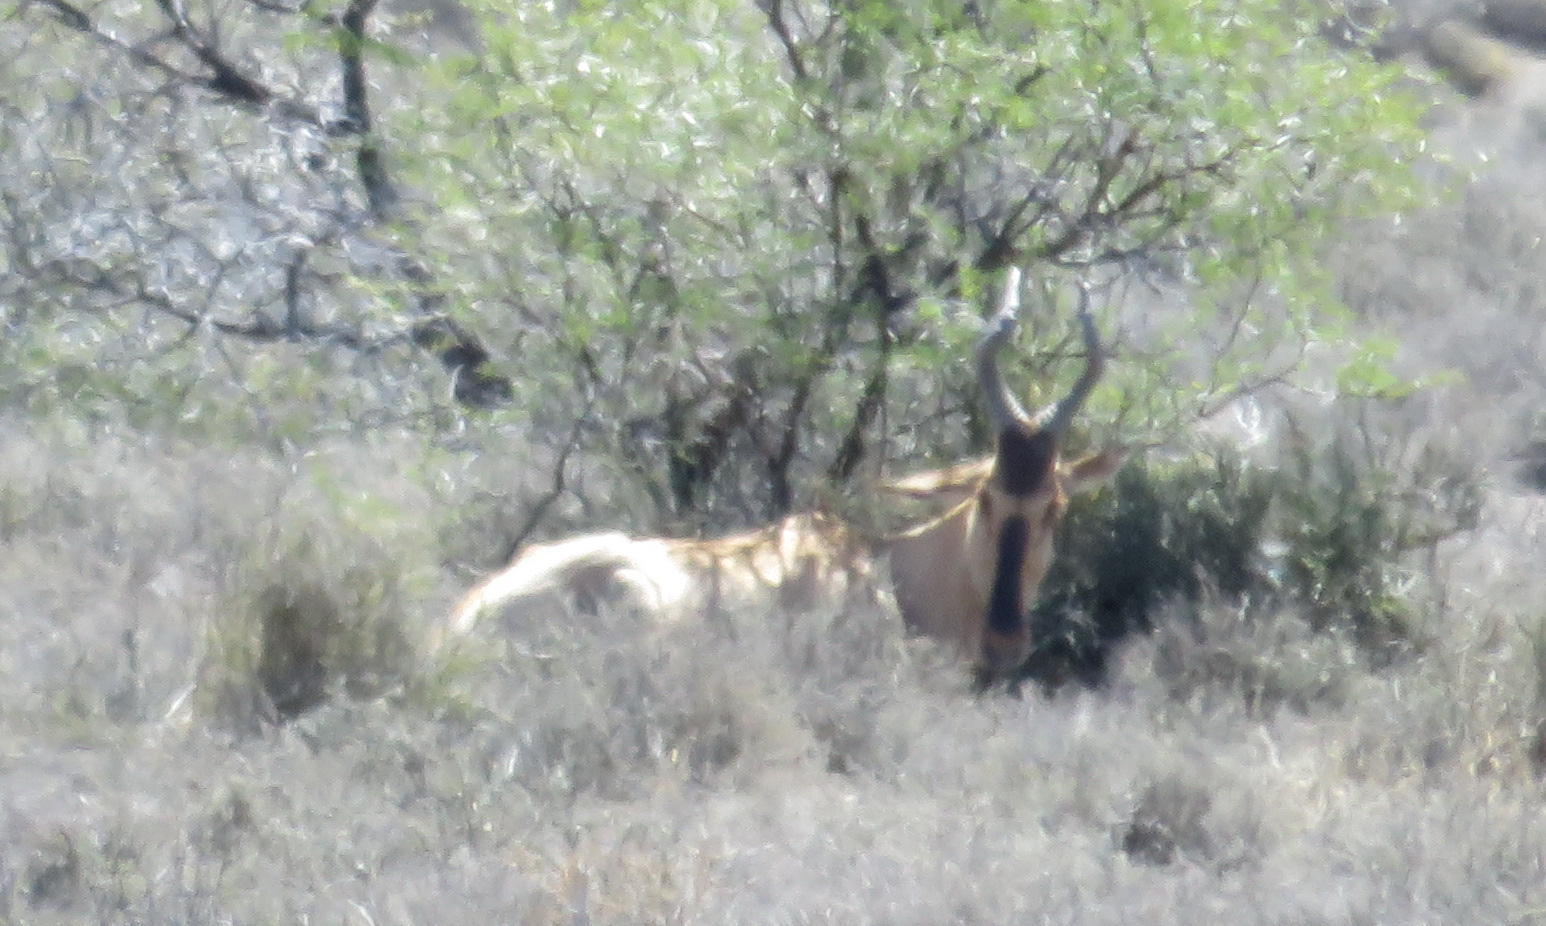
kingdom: Animalia
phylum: Chordata
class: Mammalia
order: Artiodactyla
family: Bovidae
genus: Alcelaphus
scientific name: Alcelaphus caama
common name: Red hartebeest
